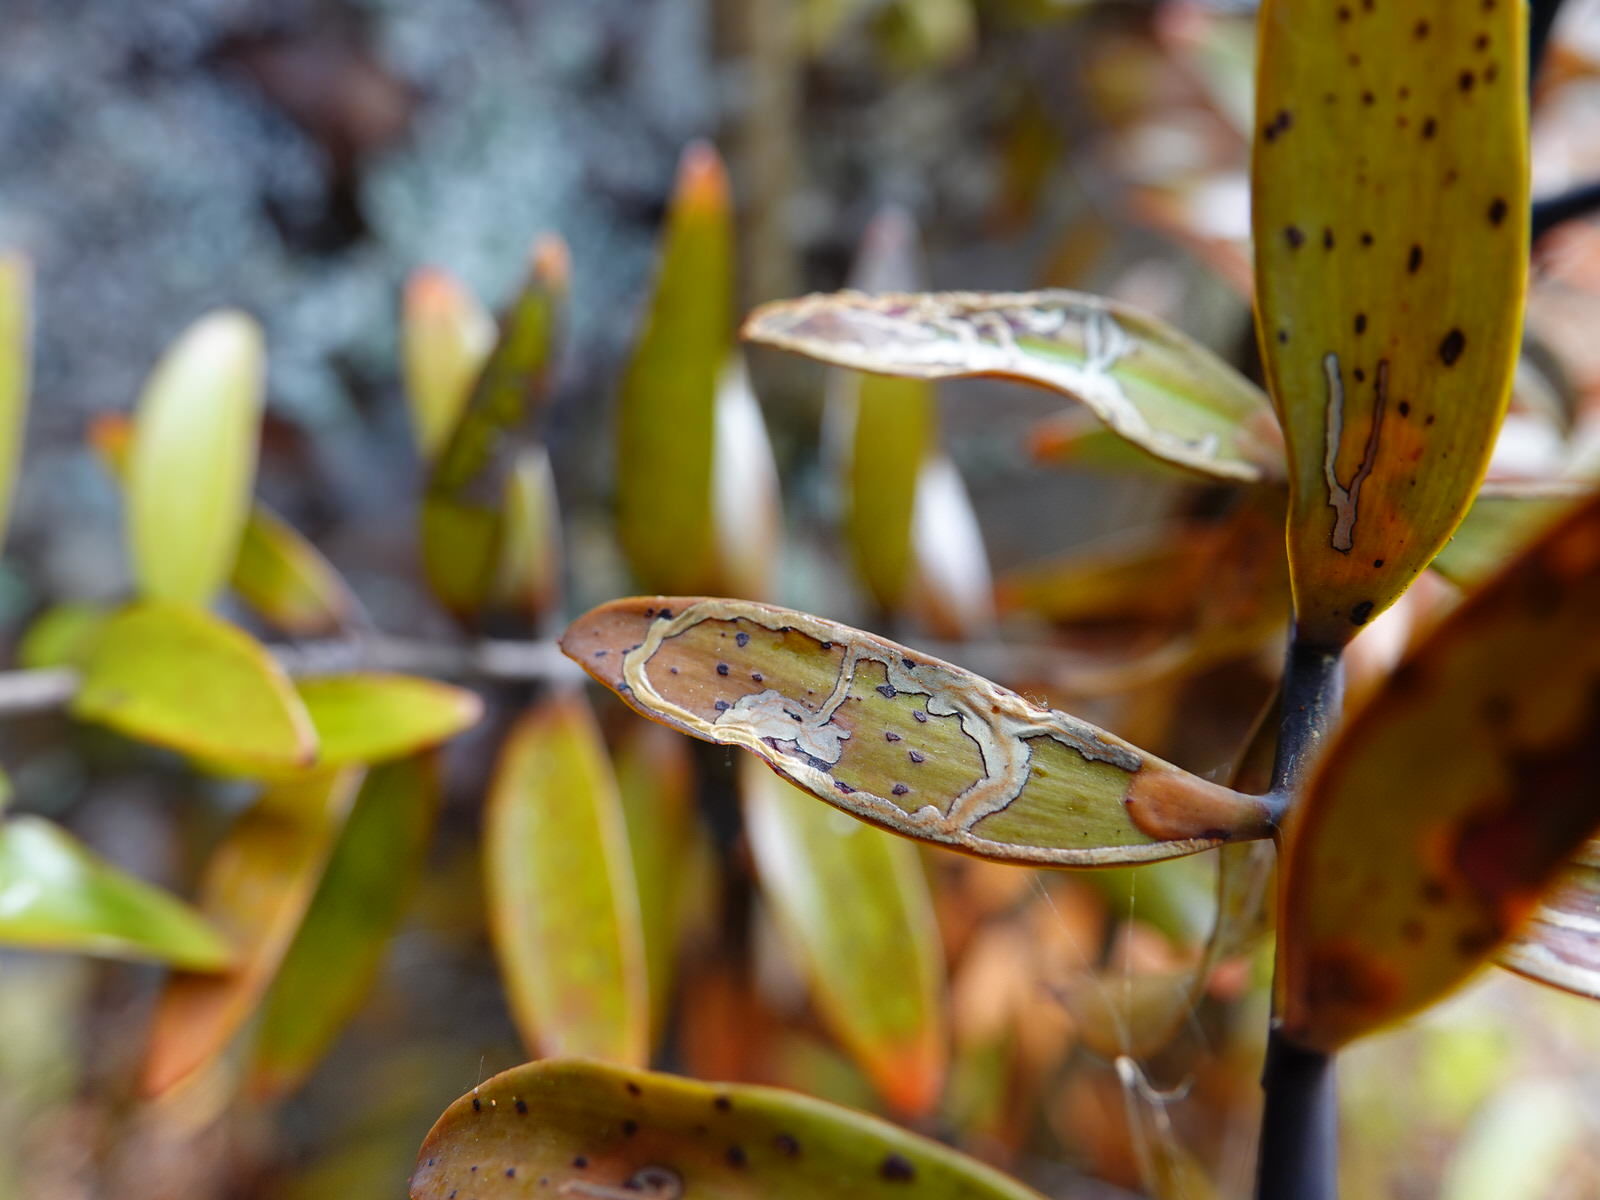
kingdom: Animalia
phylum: Arthropoda
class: Insecta
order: Lepidoptera
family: Gracillariidae
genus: Acrocercops
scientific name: Acrocercops leucotoma
